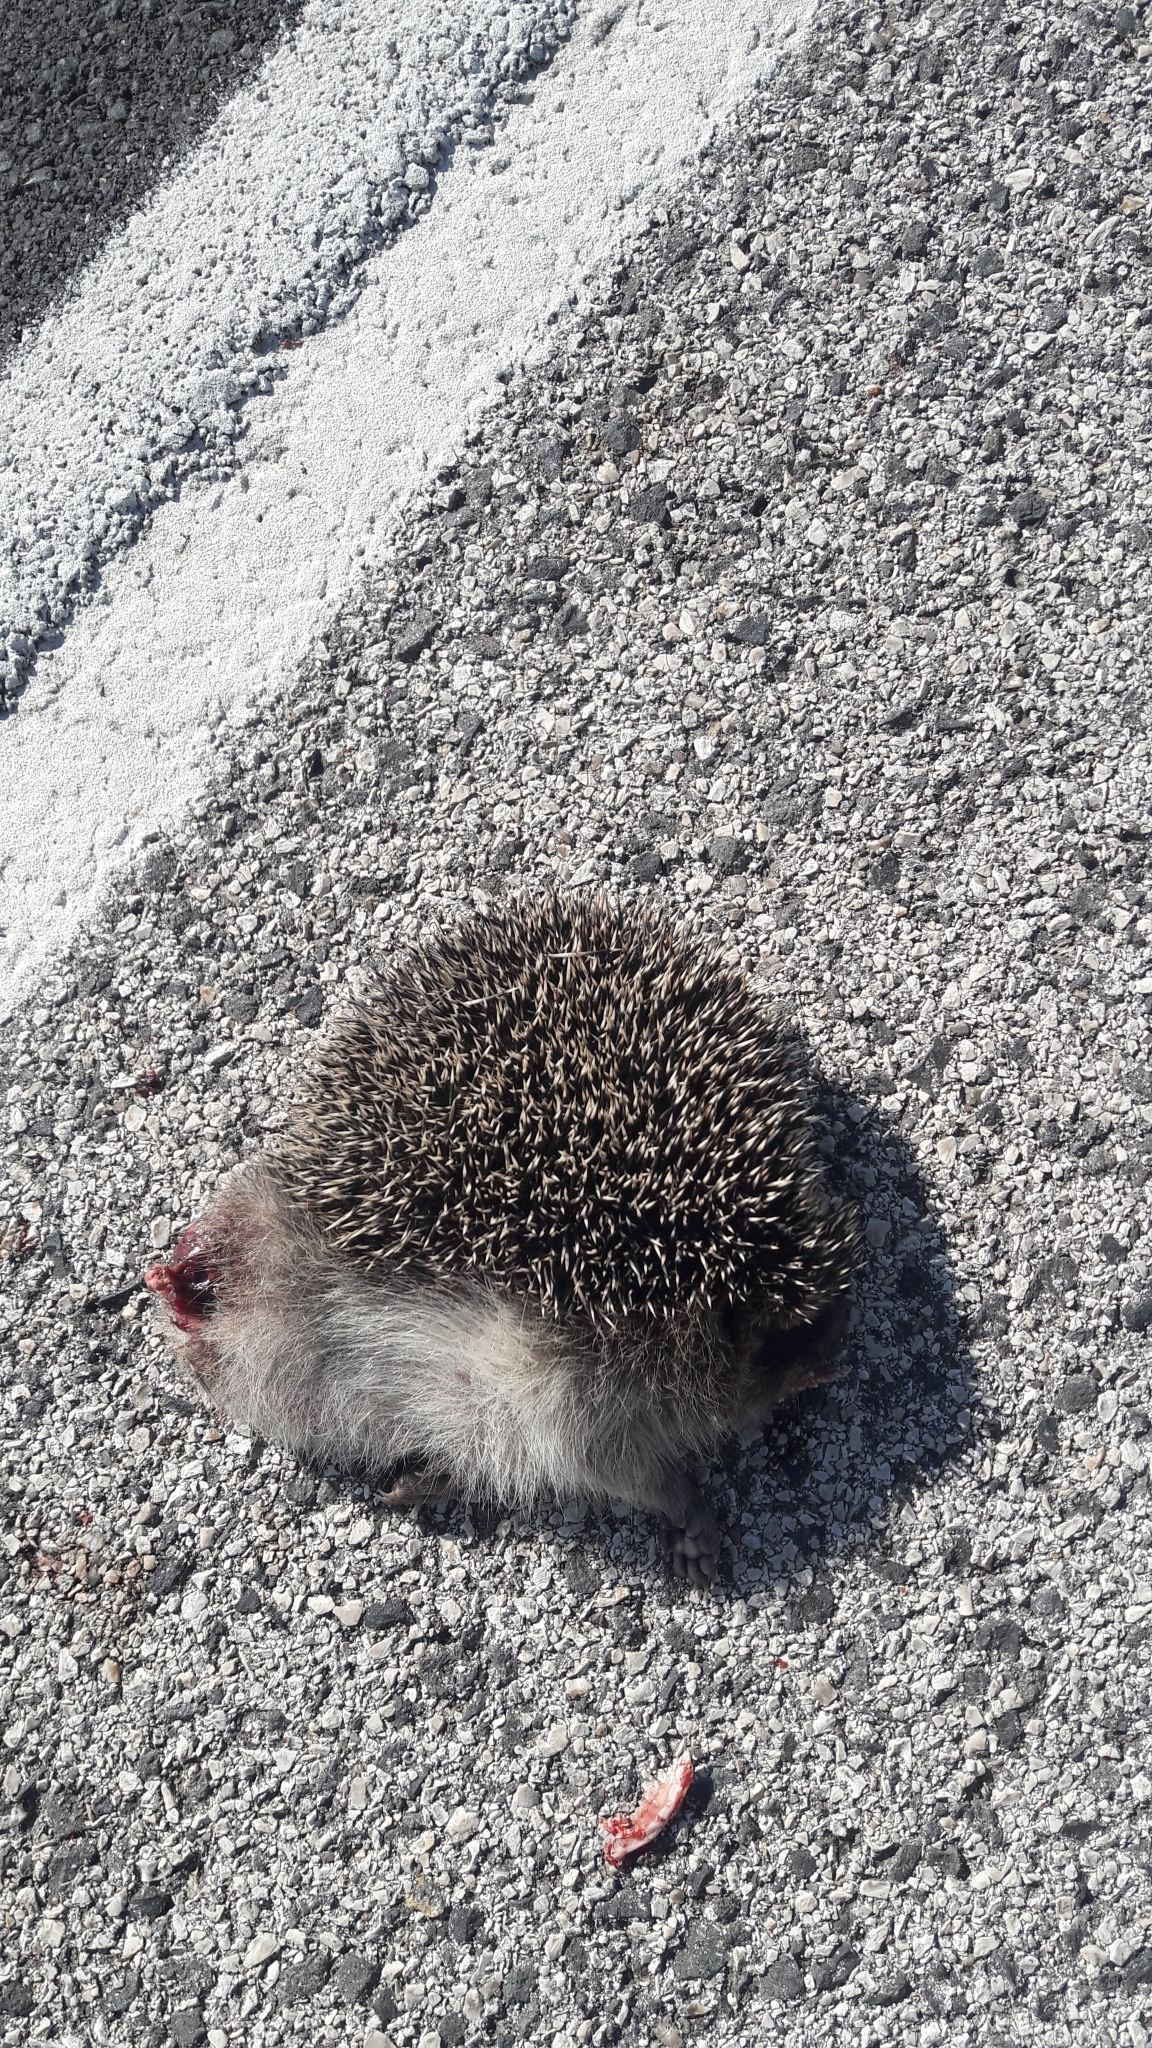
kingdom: Animalia
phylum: Chordata
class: Mammalia
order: Erinaceomorpha
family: Erinaceidae
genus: Erinaceus
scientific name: Erinaceus europaeus
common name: West european hedgehog
